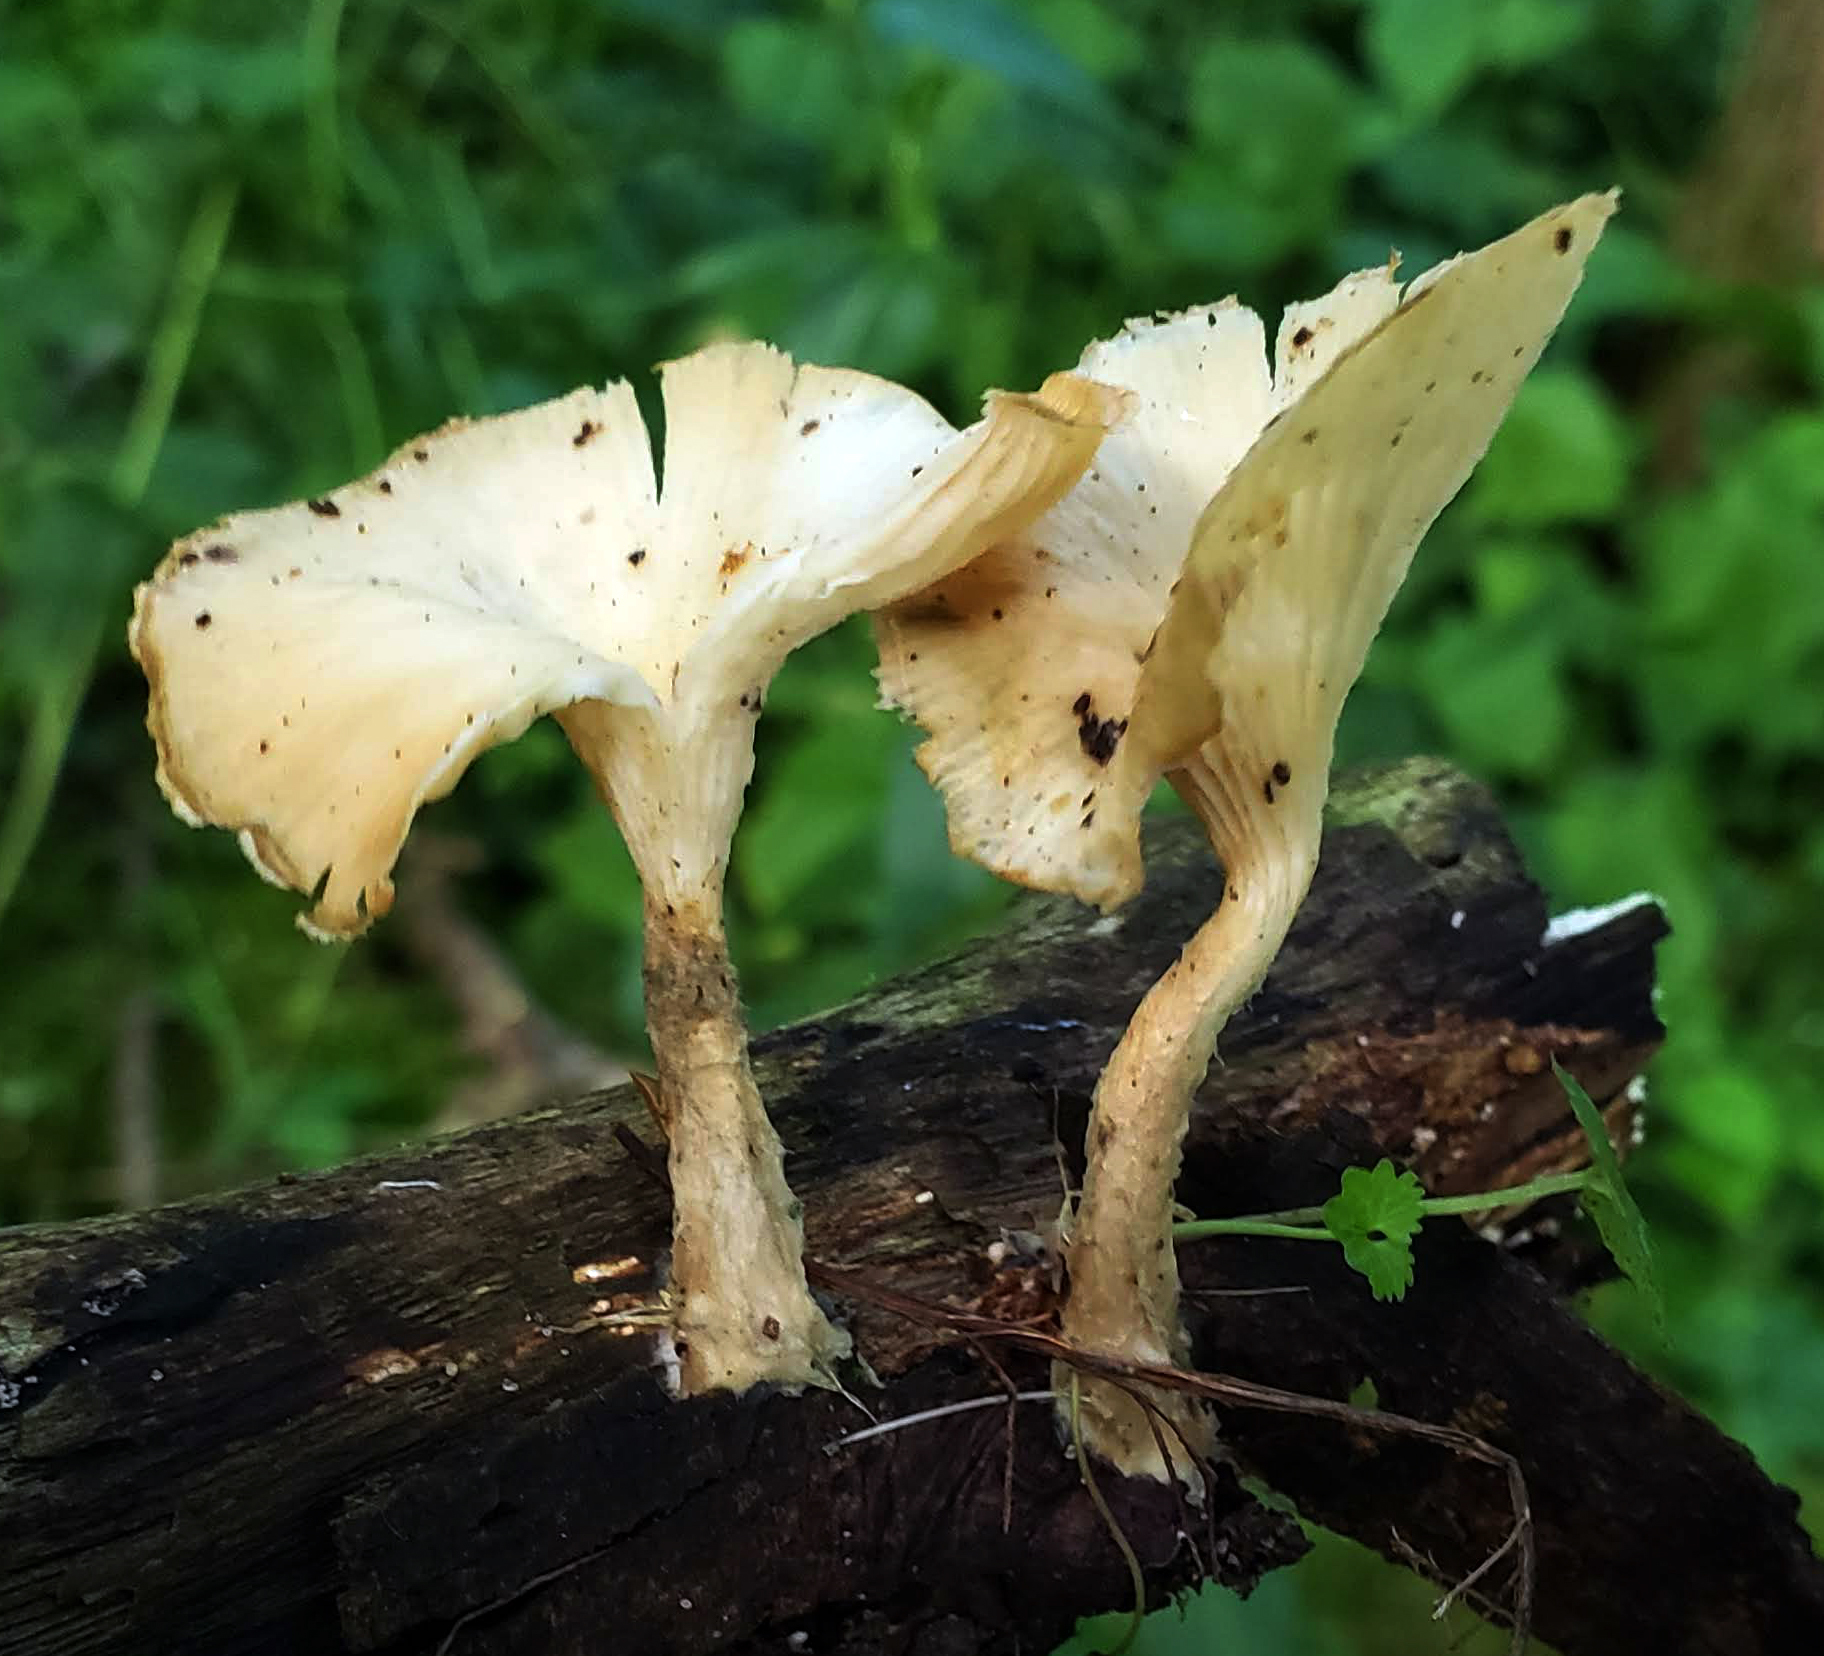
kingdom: Fungi
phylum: Basidiomycota
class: Agaricomycetes
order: Polyporales
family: Panaceae
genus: Panus
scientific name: Panus conchatus
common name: Lilac oysterling
